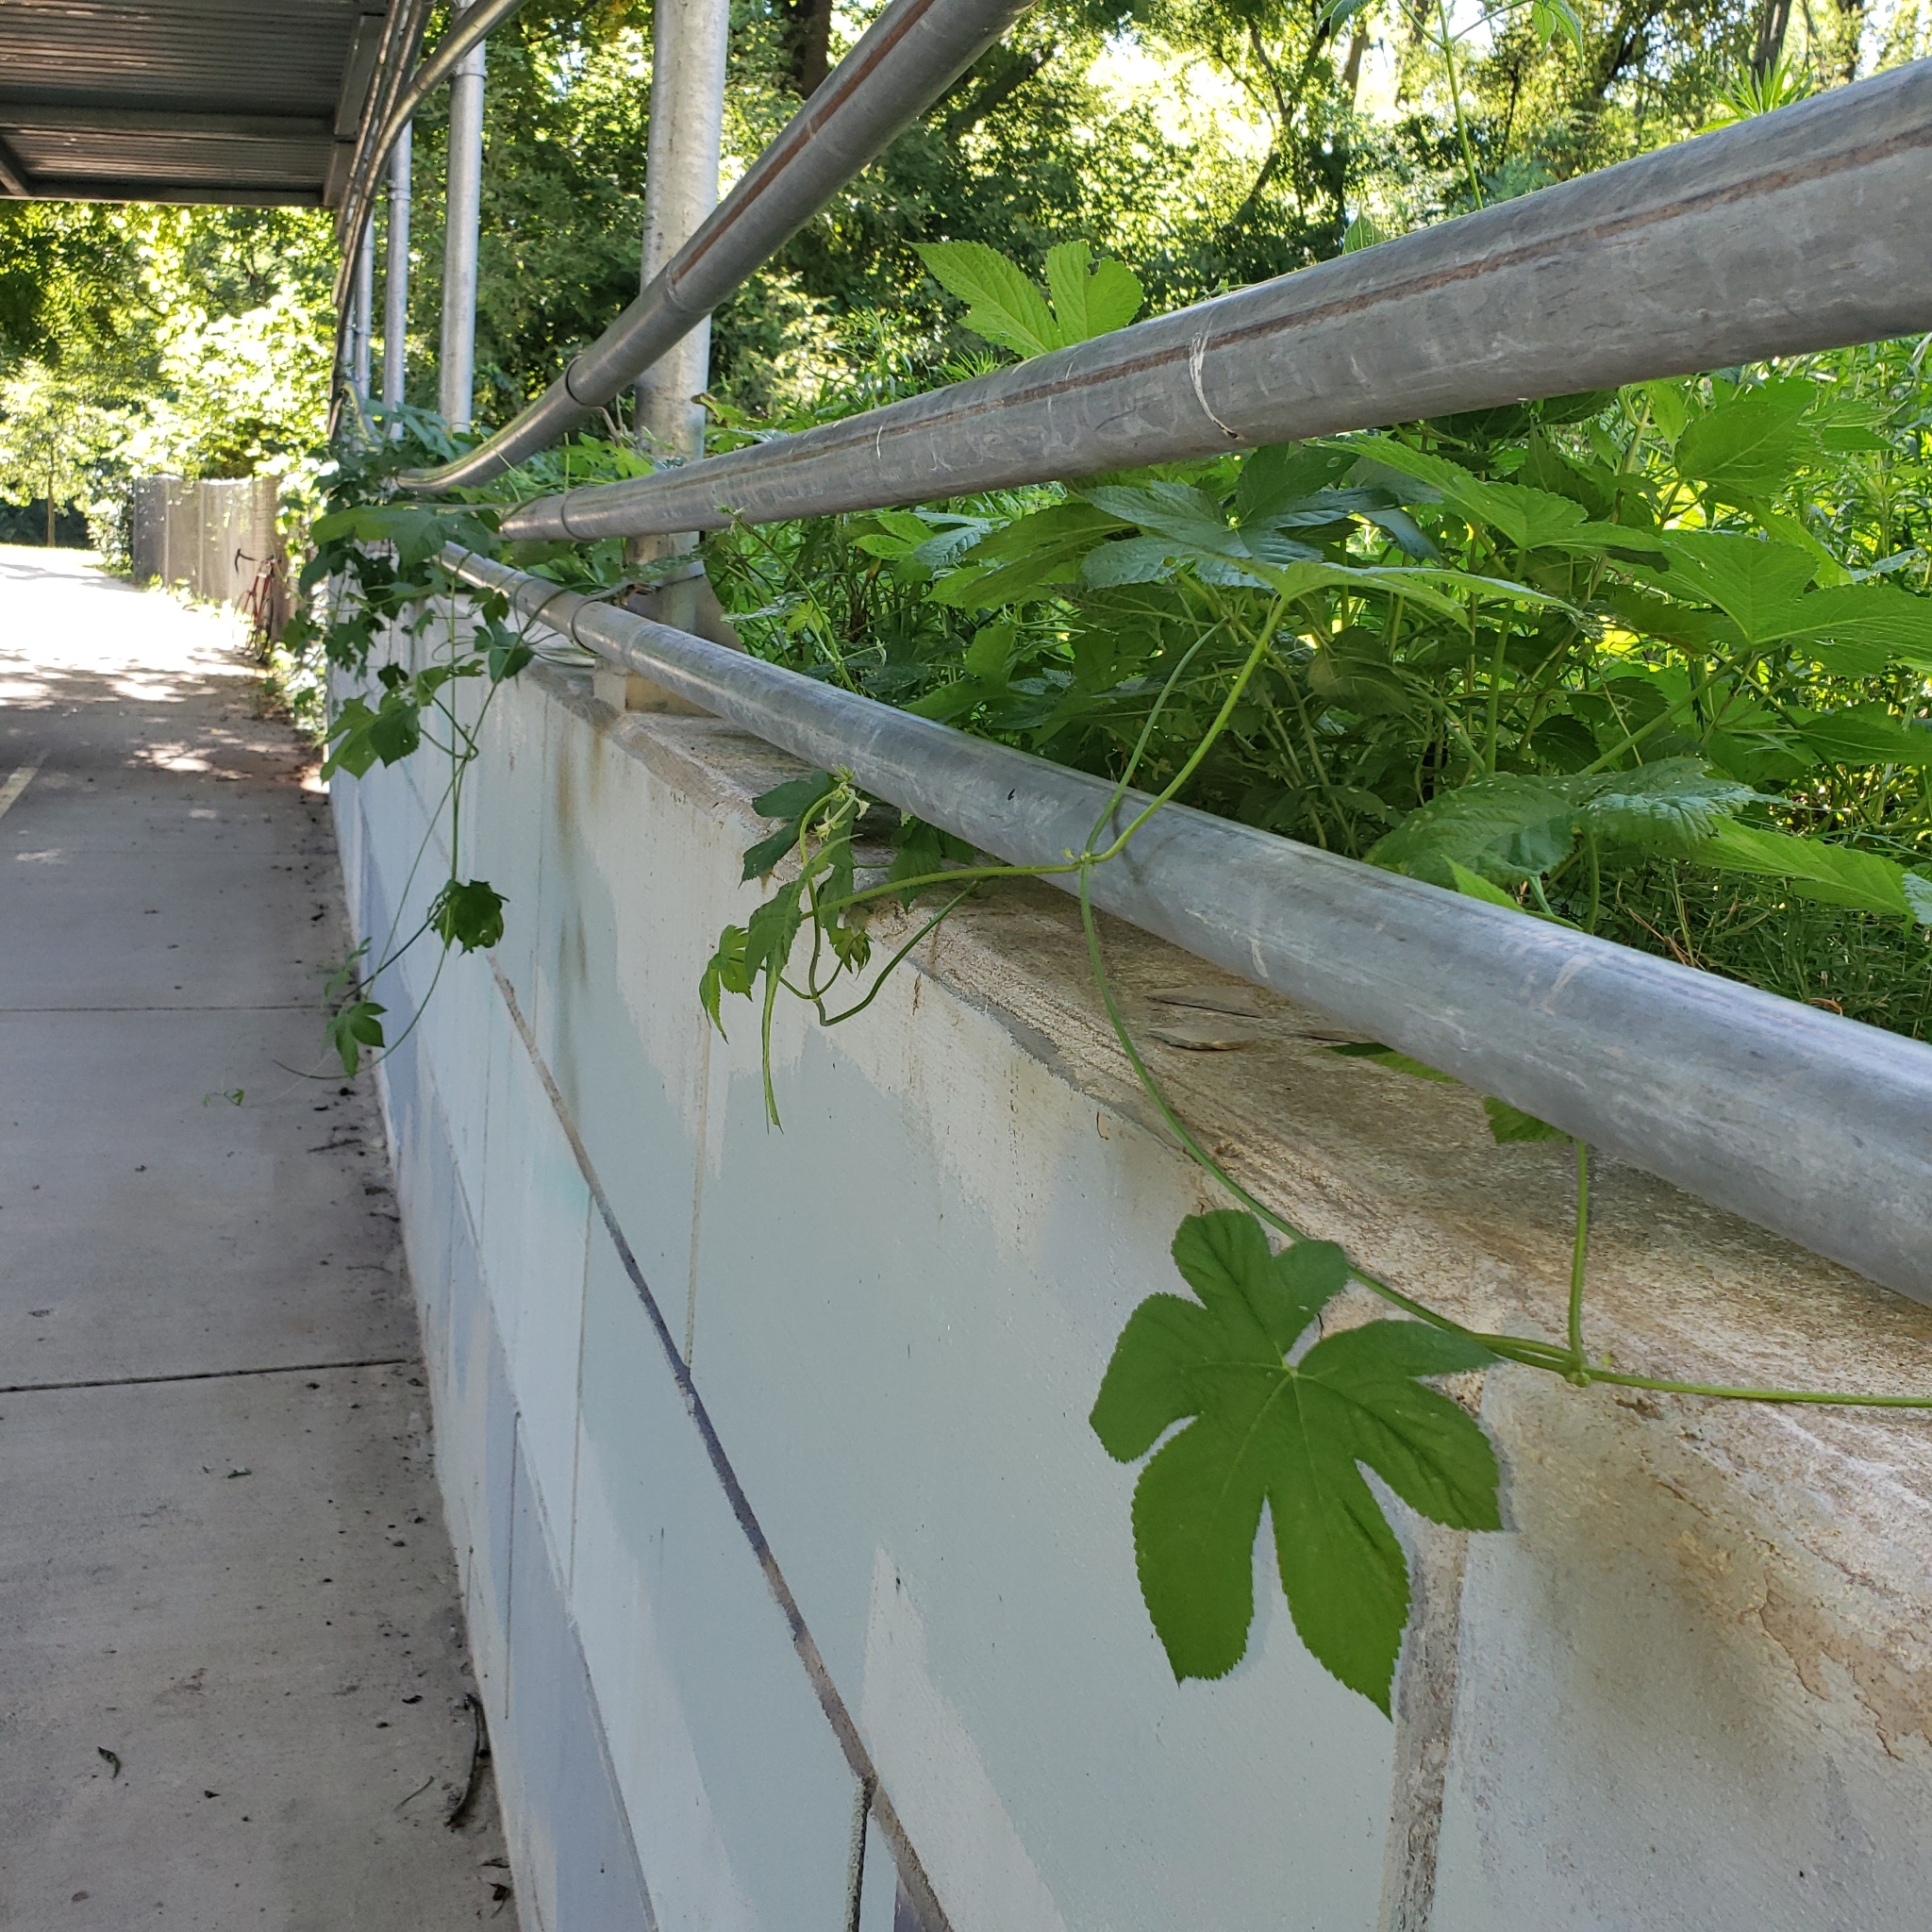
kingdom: Plantae
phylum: Tracheophyta
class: Magnoliopsida
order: Rosales
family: Cannabaceae
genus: Humulus
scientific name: Humulus scandens
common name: Japanese hop
